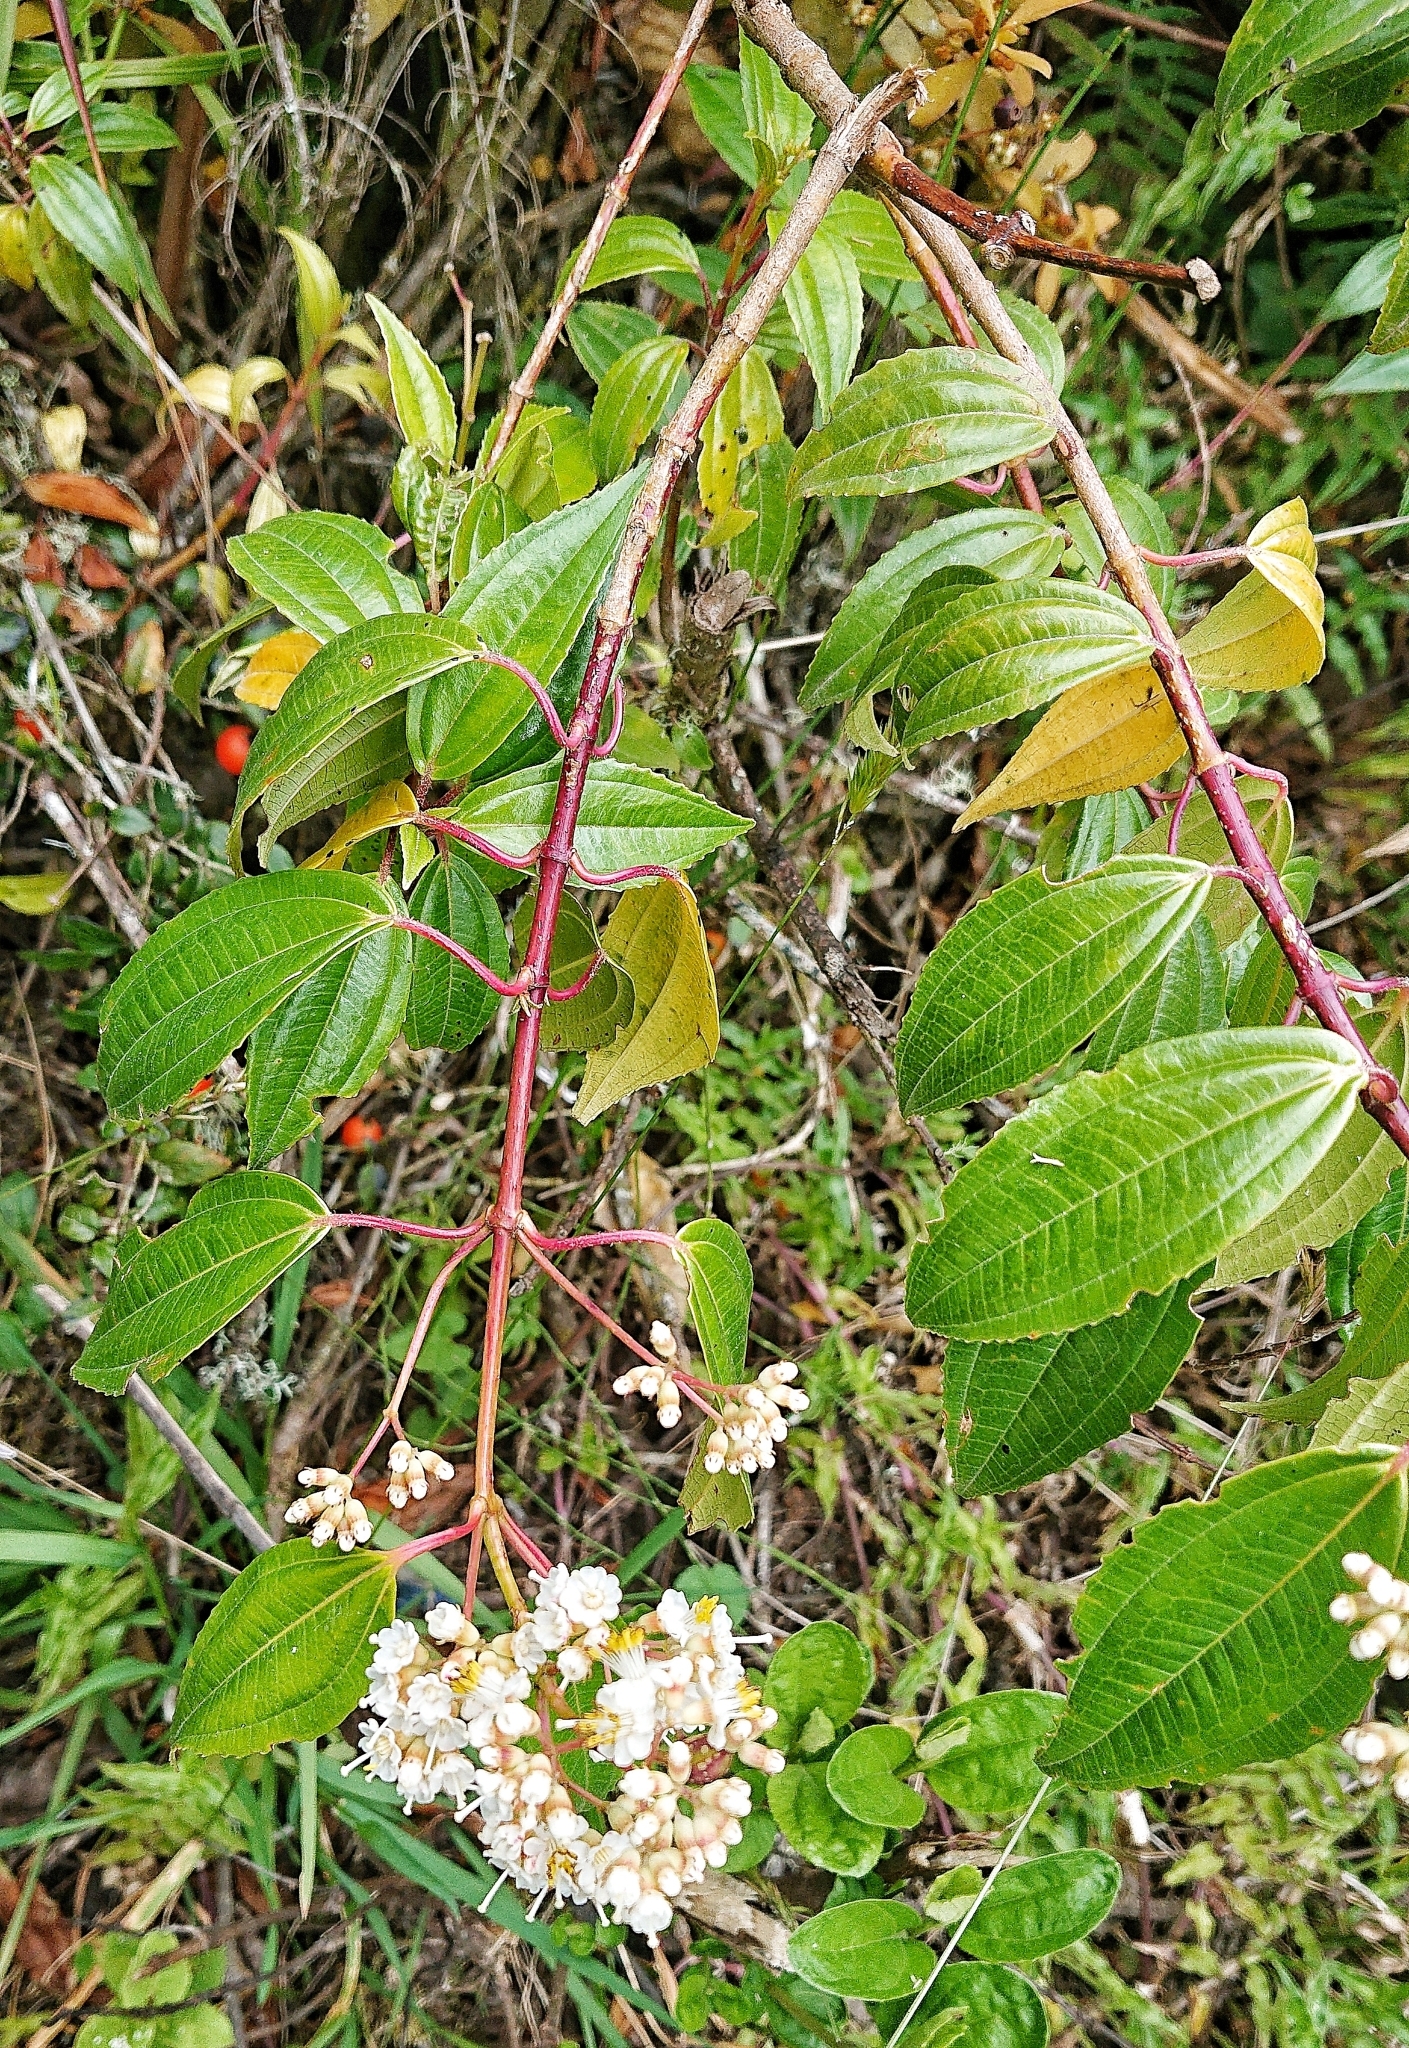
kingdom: Plantae
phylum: Tracheophyta
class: Magnoliopsida
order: Myrtales
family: Melastomataceae
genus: Miconia
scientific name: Miconia crocea
